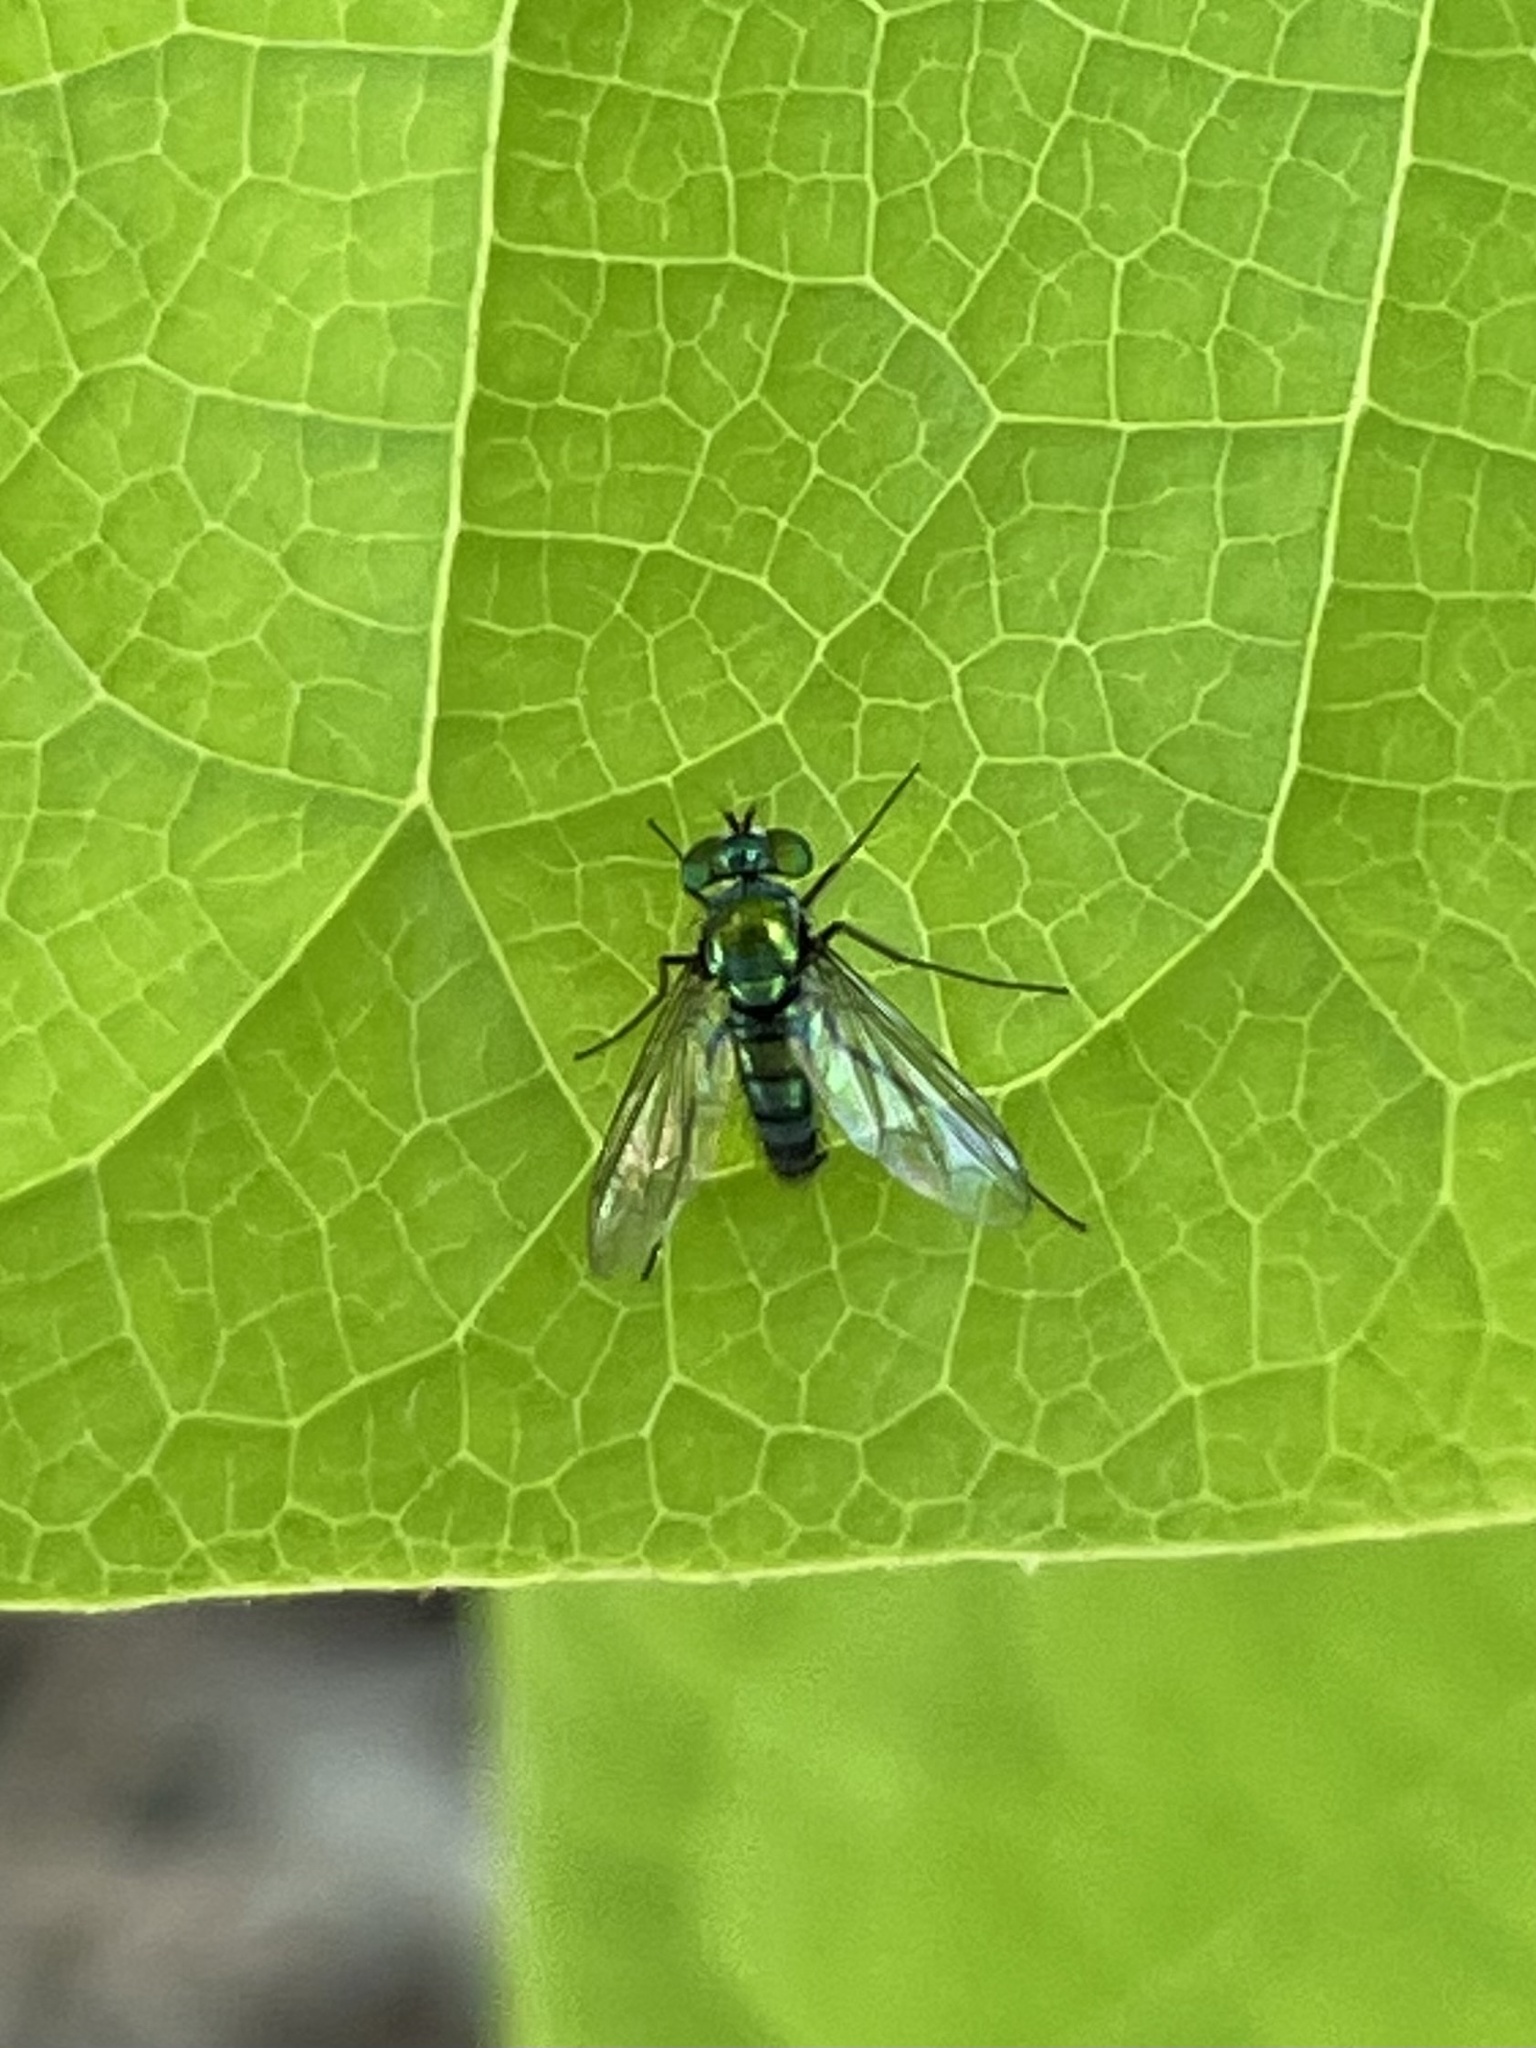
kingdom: Animalia
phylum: Arthropoda
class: Insecta
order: Diptera
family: Dolichopodidae
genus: Condylostylus
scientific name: Condylostylus longicornis
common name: Long-legged fly
